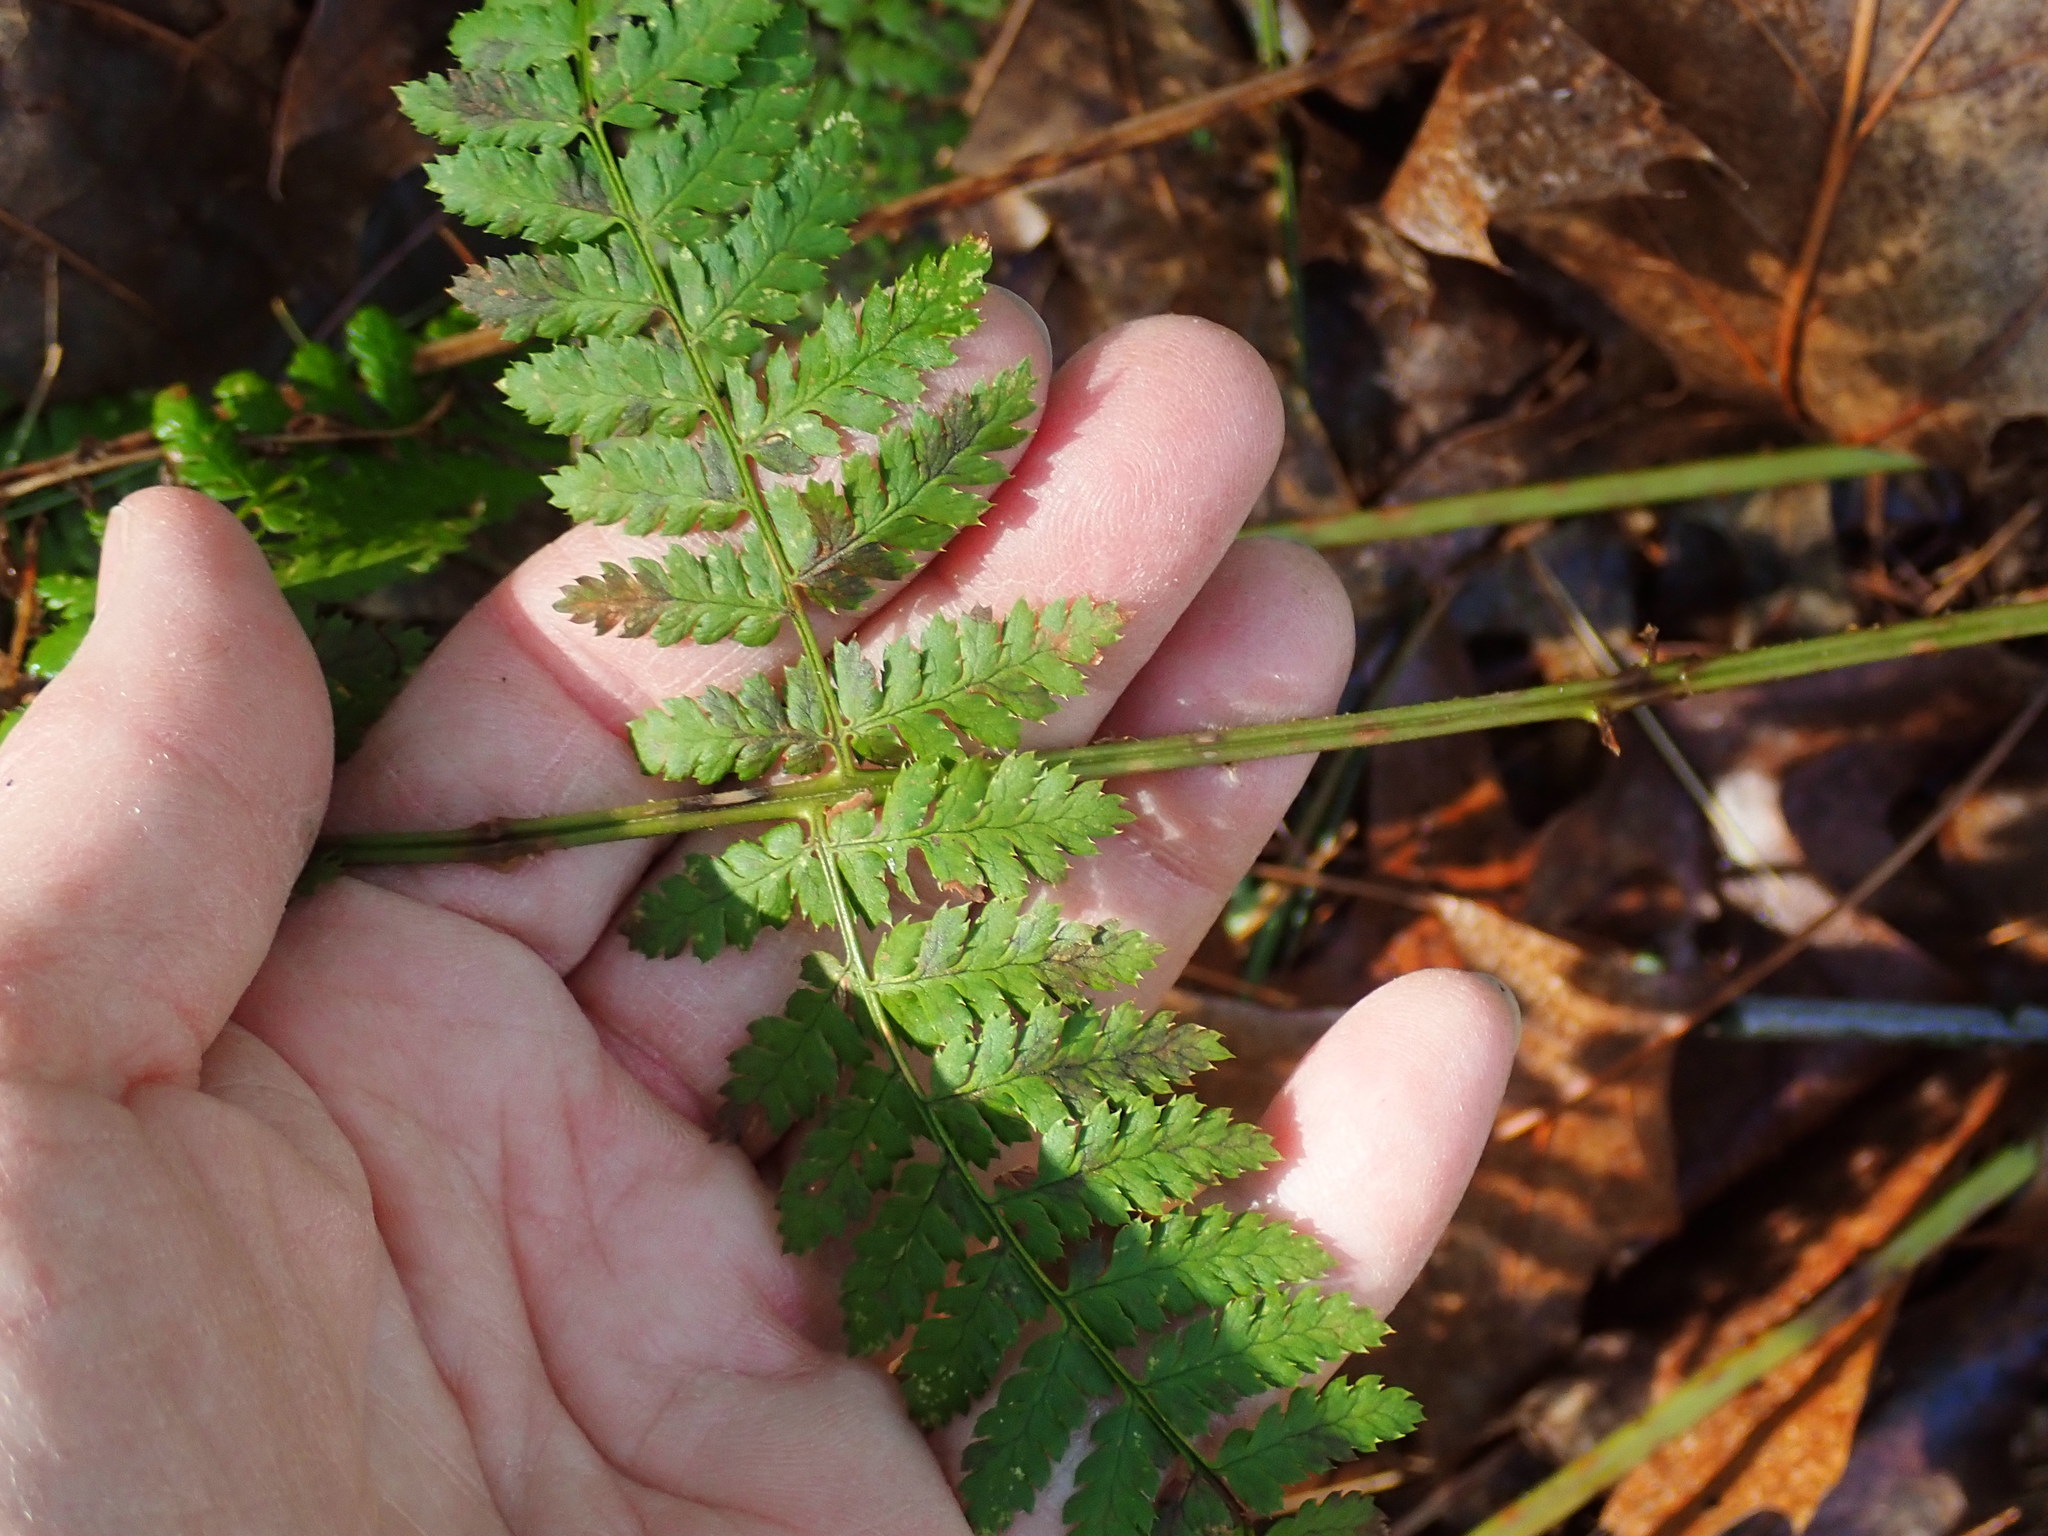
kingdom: Plantae
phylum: Tracheophyta
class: Polypodiopsida
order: Polypodiales
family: Dryopteridaceae
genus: Dryopteris
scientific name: Dryopteris intermedia
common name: Evergreen wood fern
